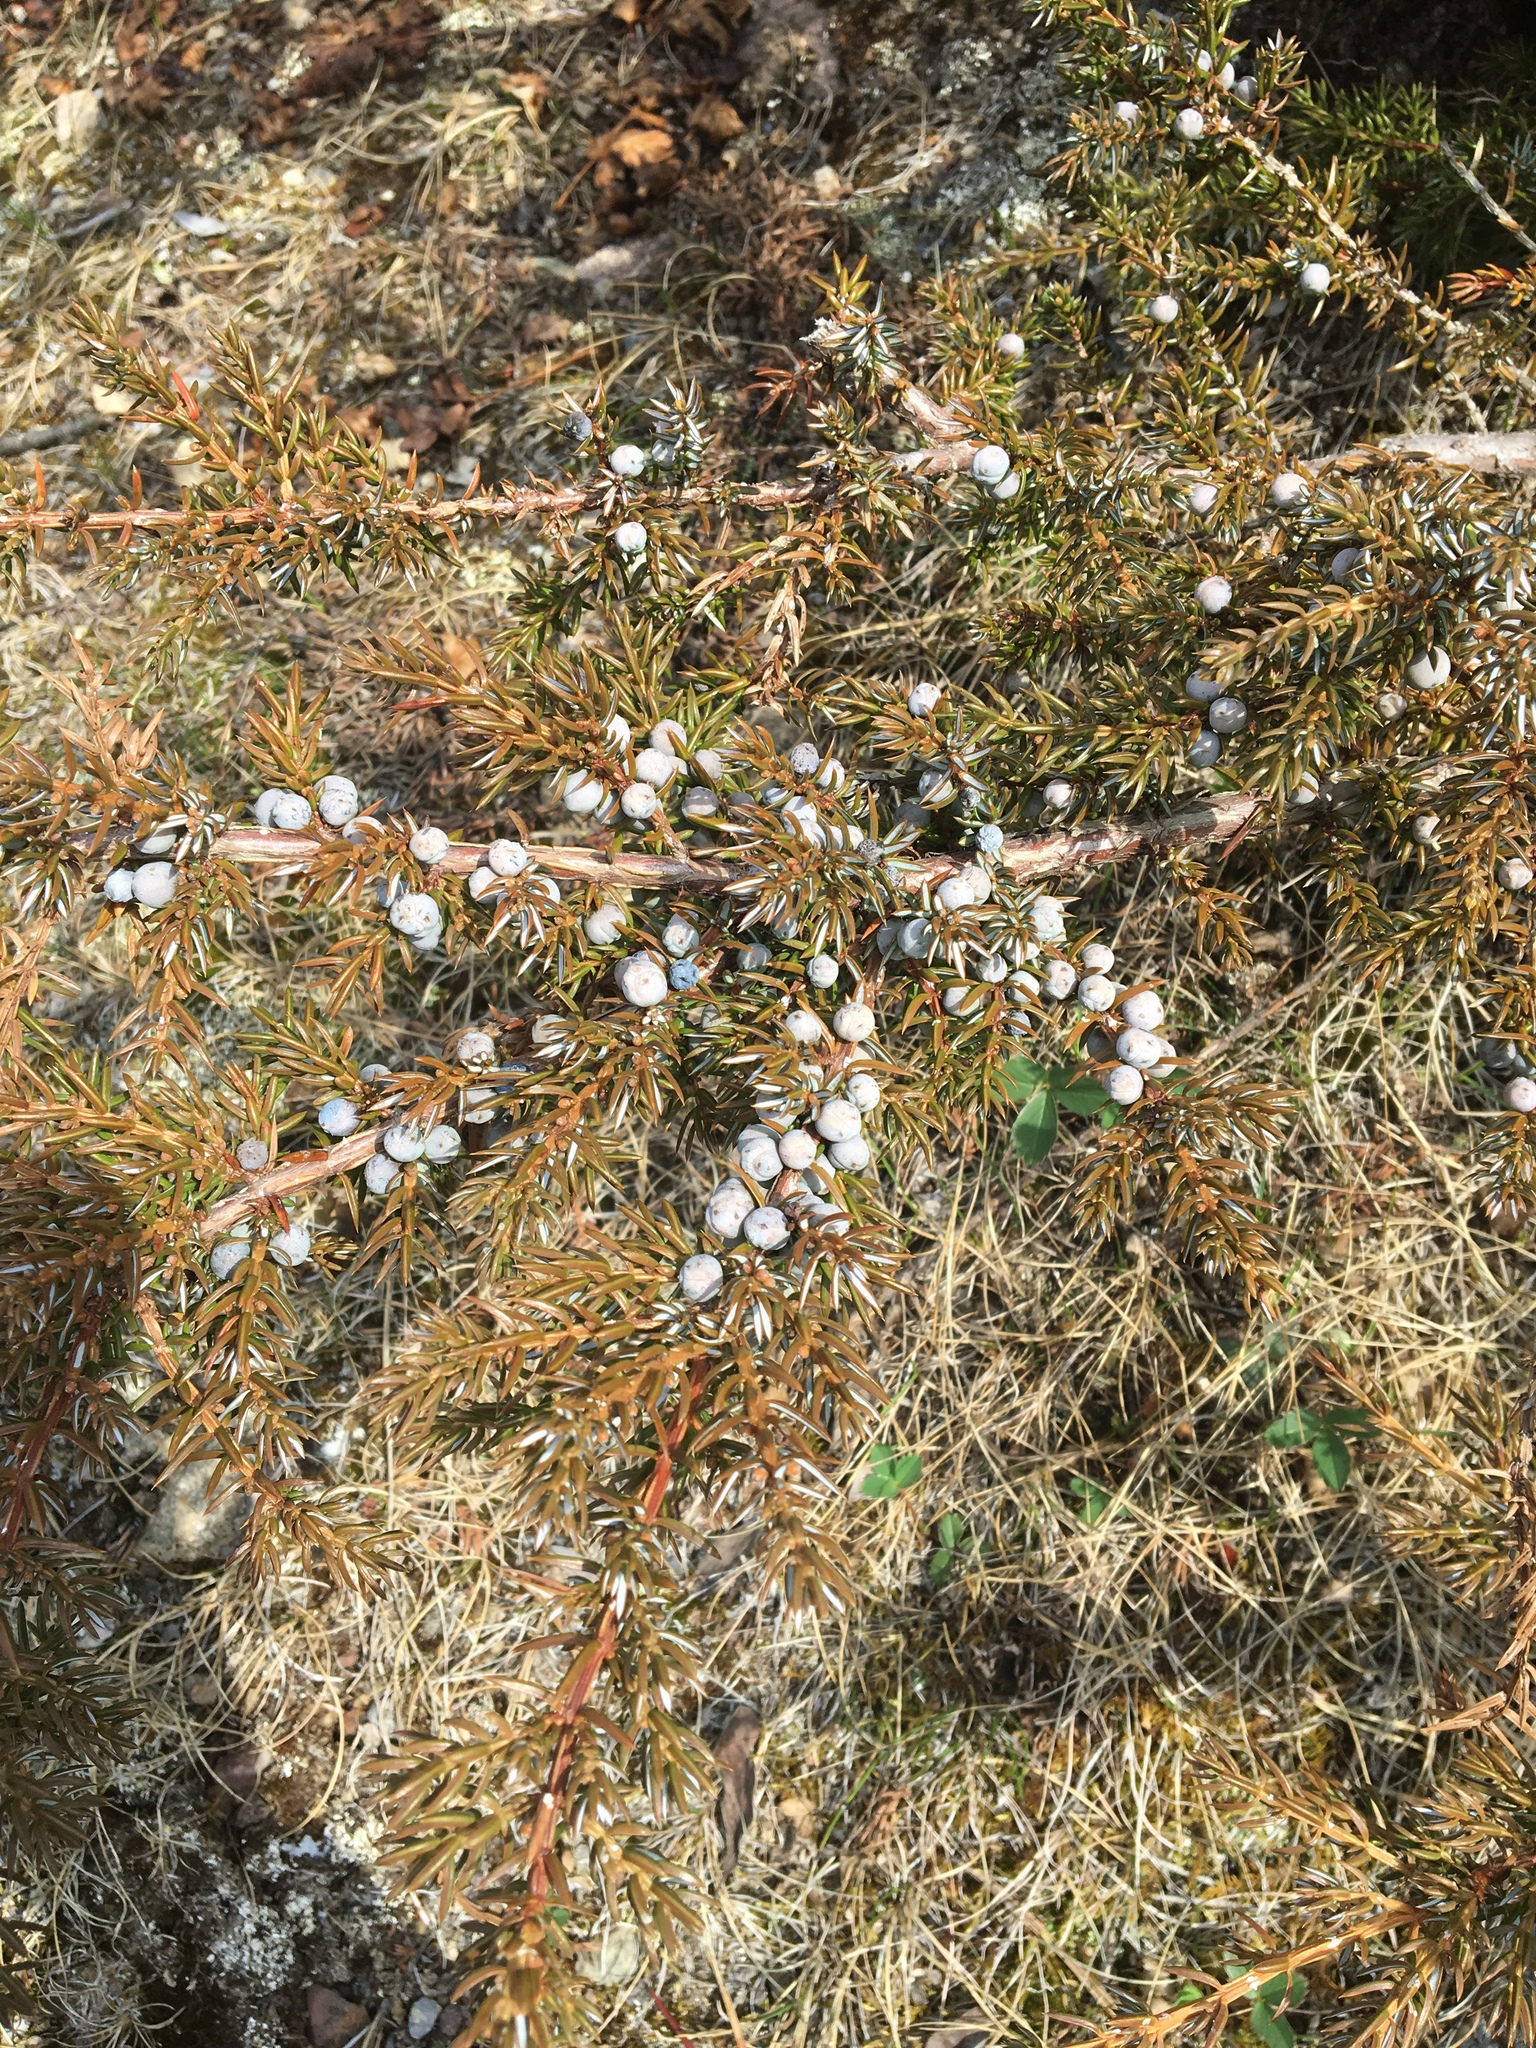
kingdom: Plantae
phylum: Tracheophyta
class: Pinopsida
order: Pinales
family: Cupressaceae
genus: Juniperus
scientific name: Juniperus communis
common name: Common juniper
